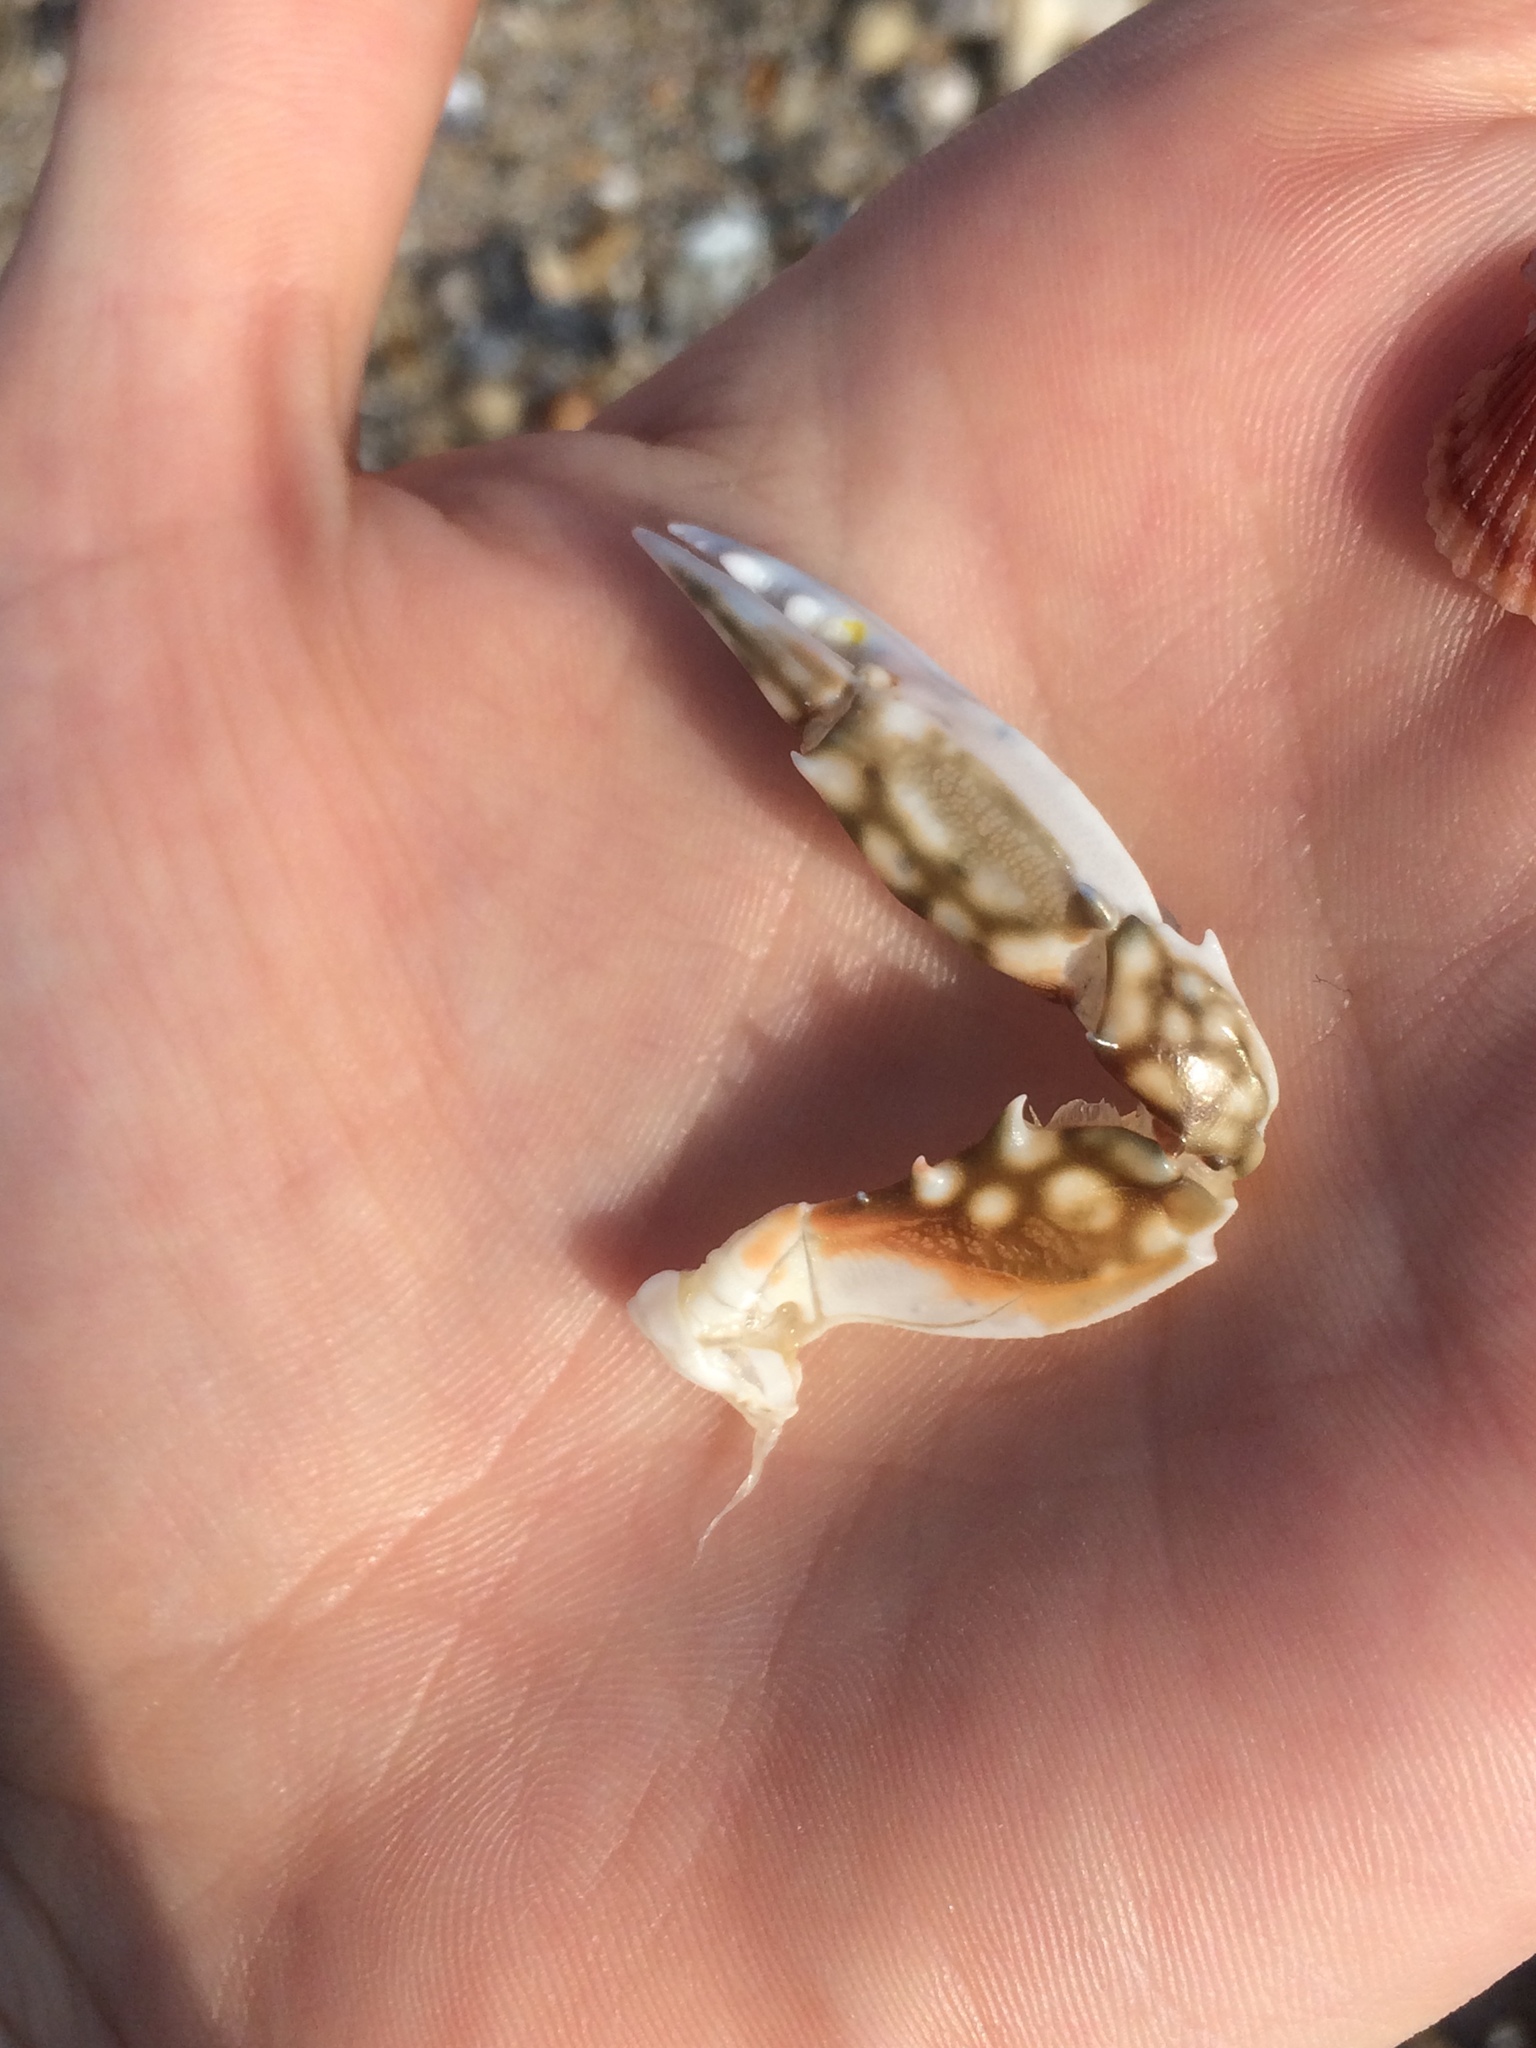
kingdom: Animalia
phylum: Arthropoda
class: Malacostraca
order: Decapoda
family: Portunidae
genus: Arenaeus
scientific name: Arenaeus cribrarius
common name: Speckled crab
